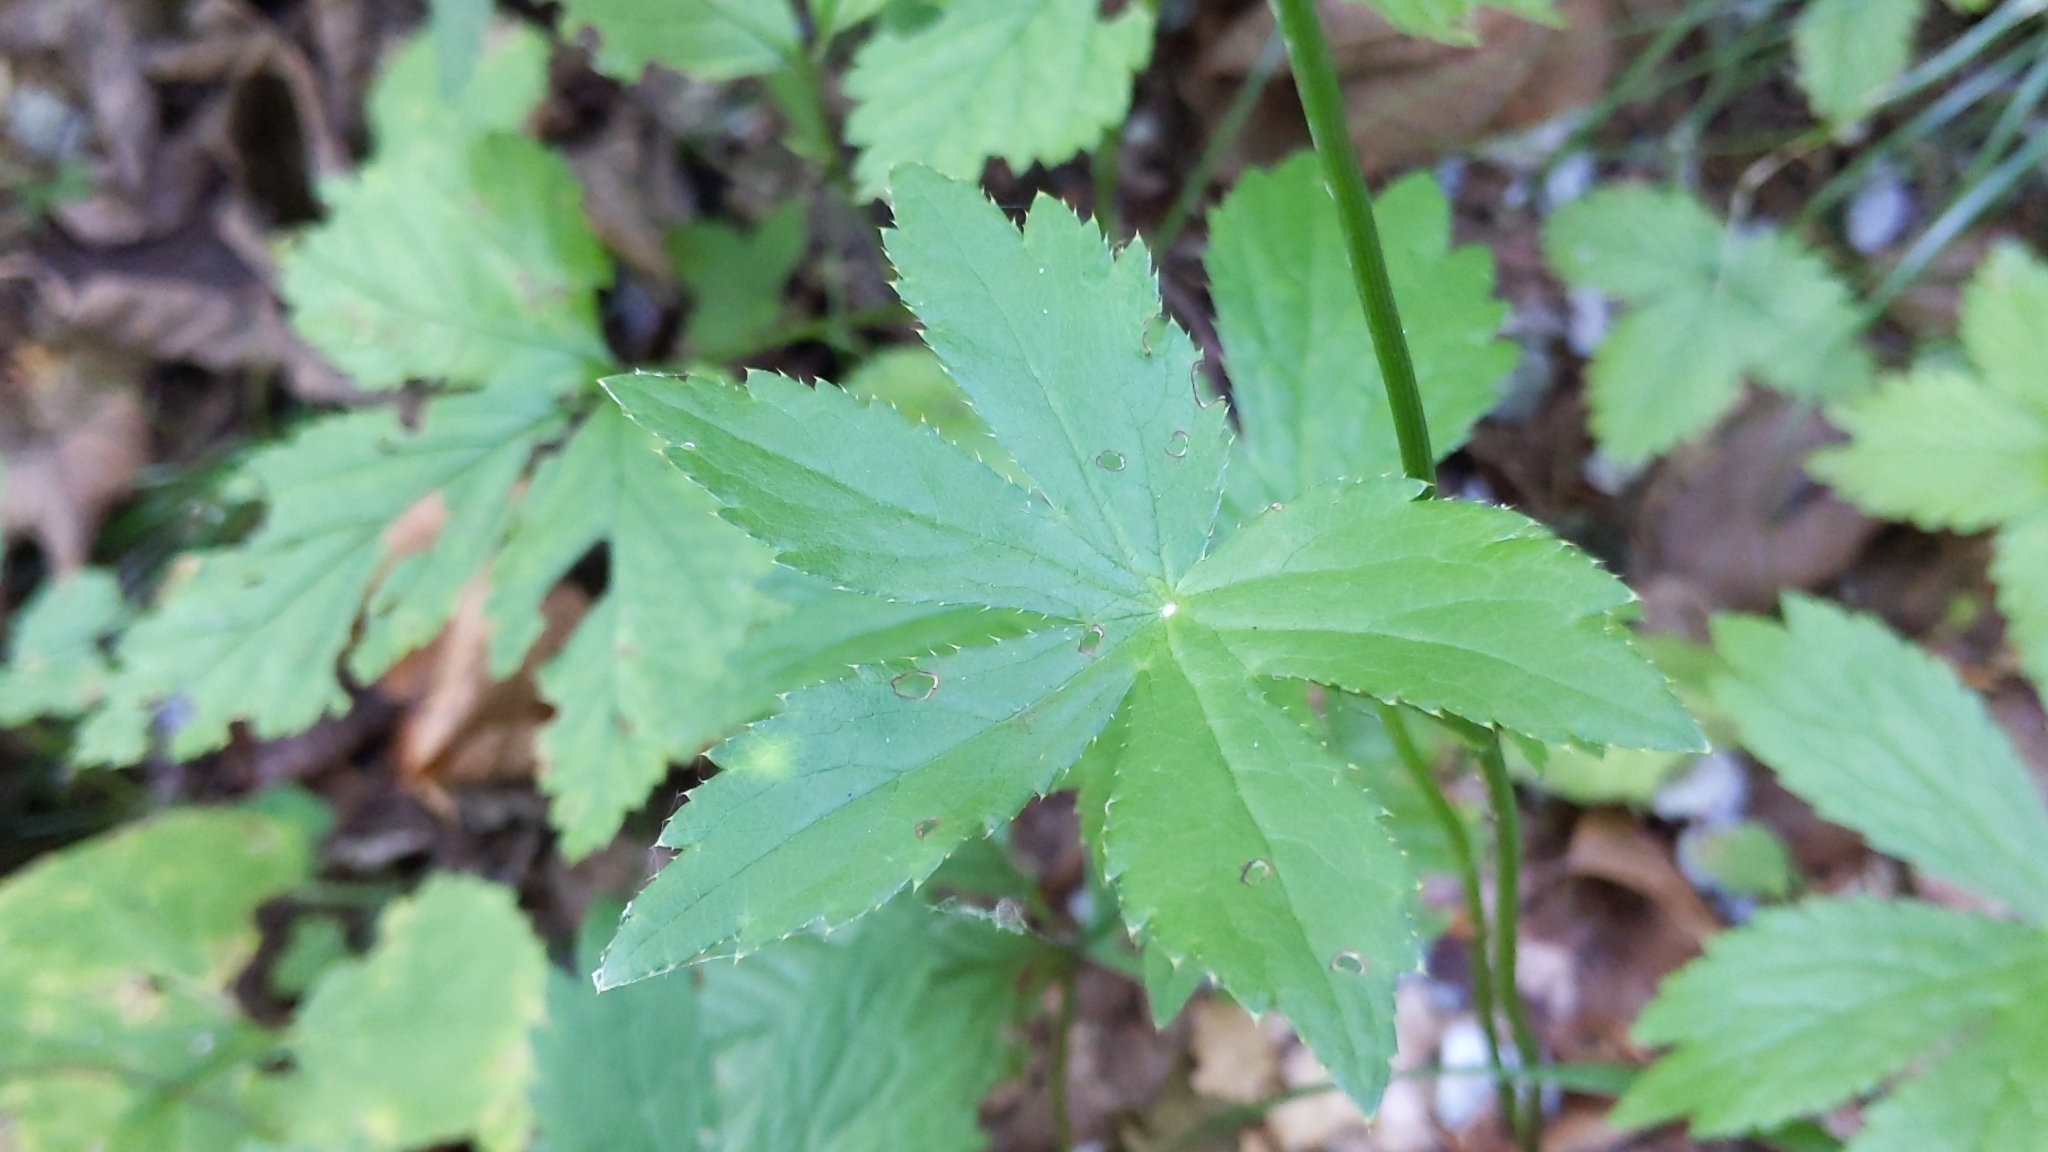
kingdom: Plantae
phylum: Tracheophyta
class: Magnoliopsida
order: Apiales
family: Apiaceae
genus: Astrantia
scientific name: Astrantia major
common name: Greater masterwort
